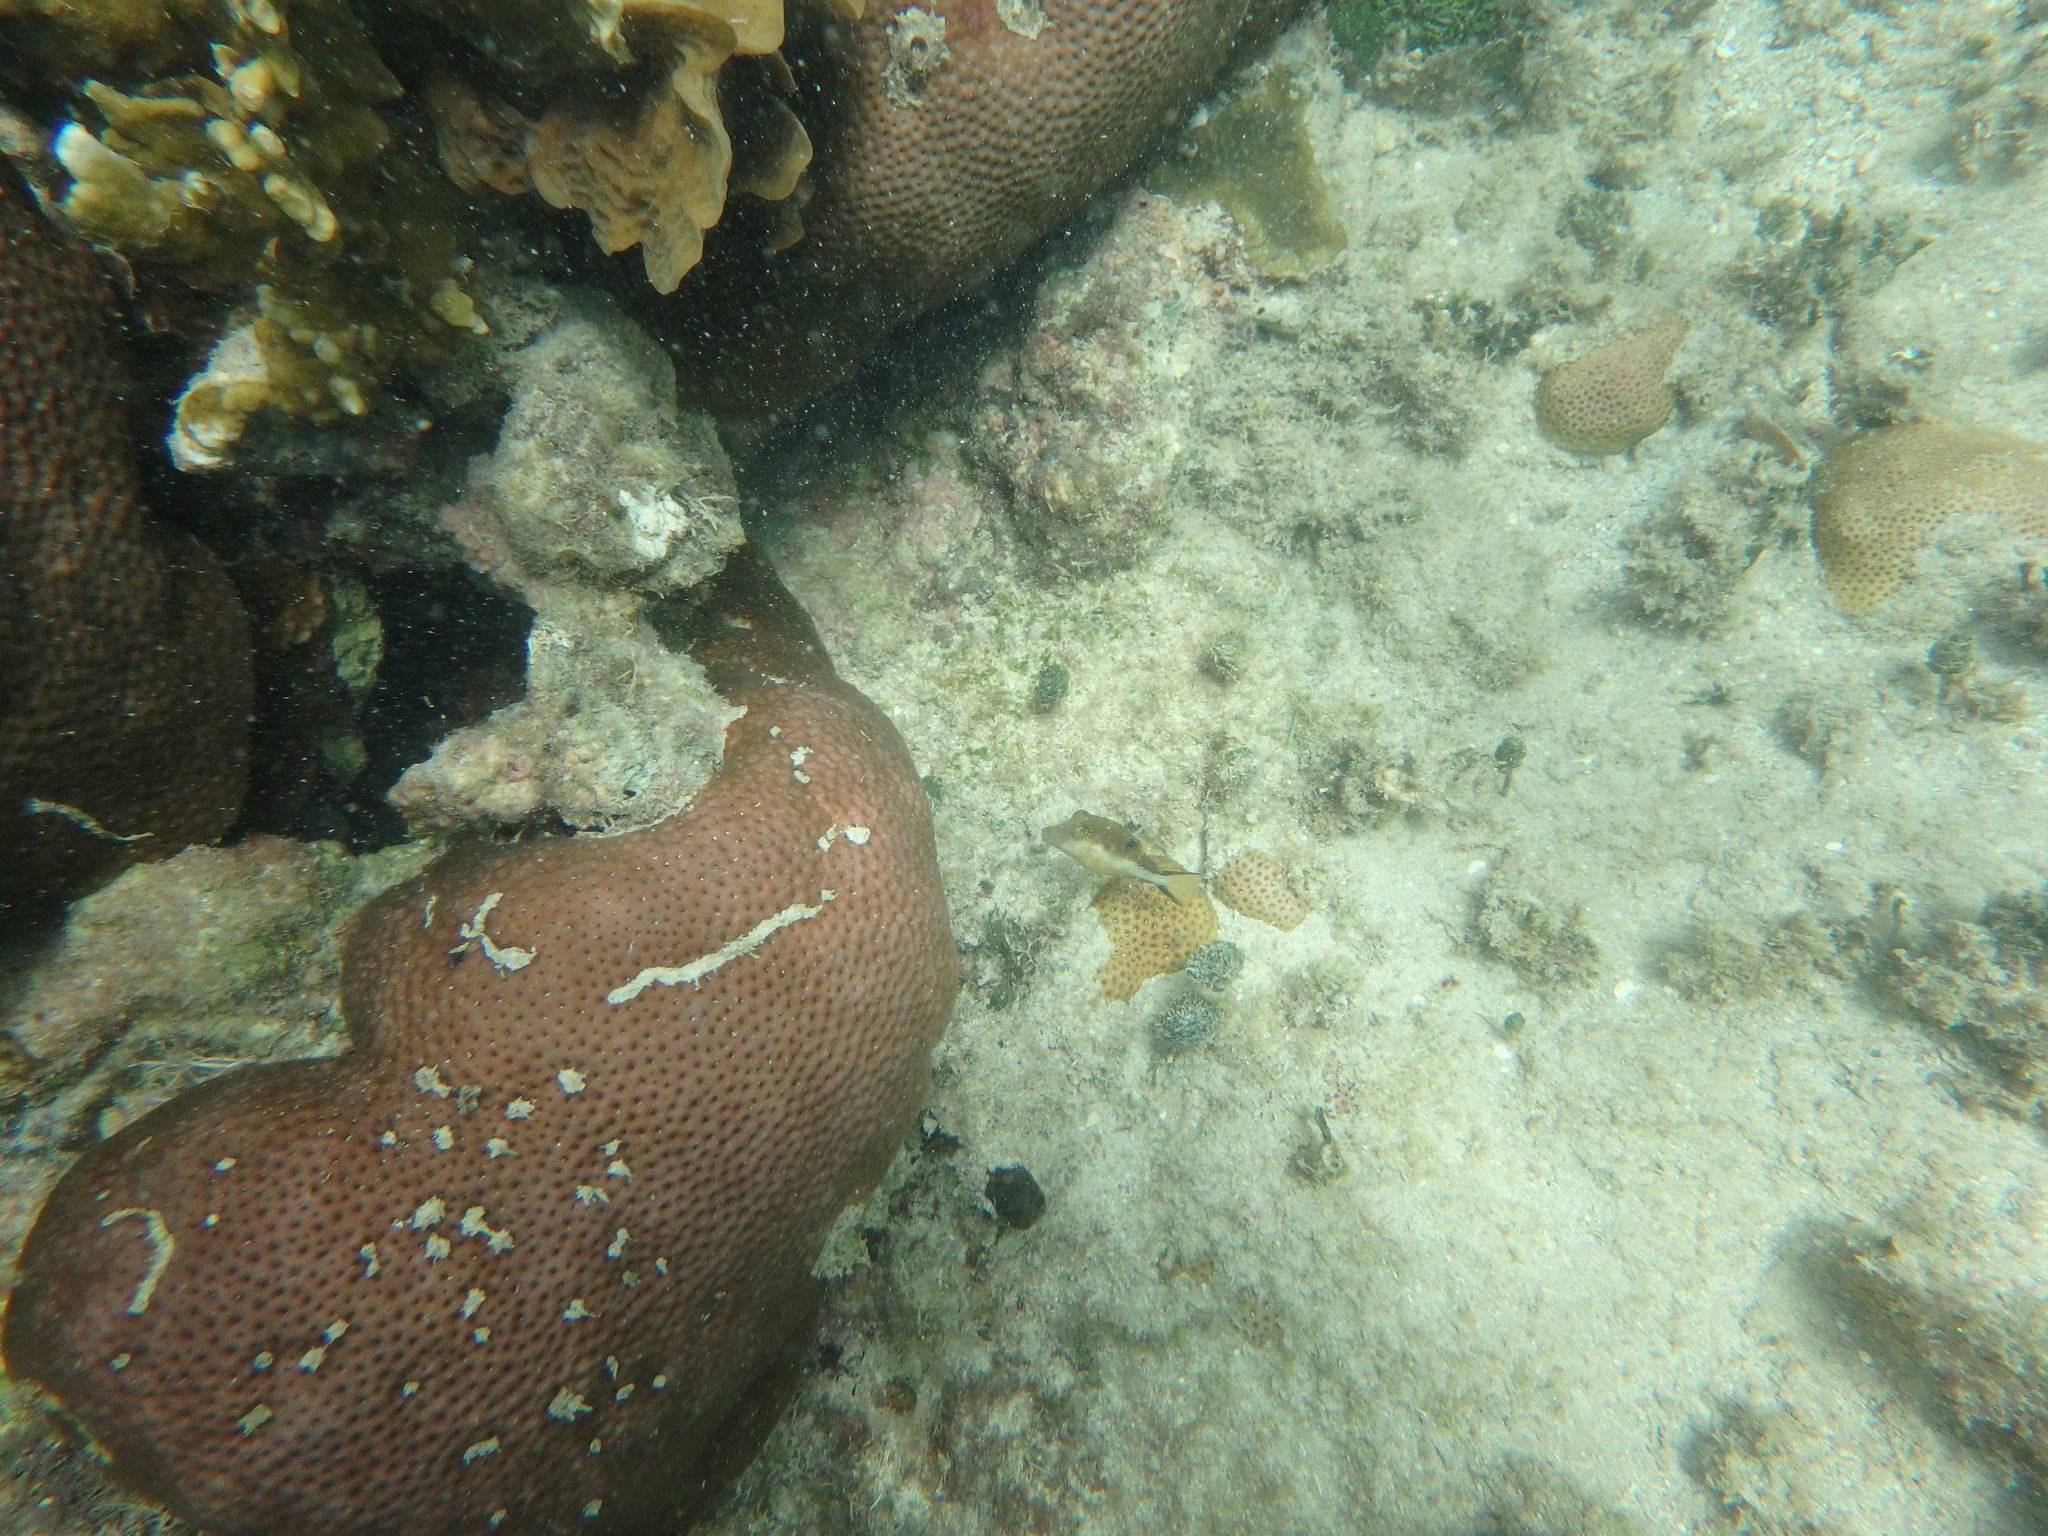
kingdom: Animalia
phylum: Chordata
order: Tetraodontiformes
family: Tetraodontidae
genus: Canthigaster
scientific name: Canthigaster rostrata
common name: Caribbean sharpnose-puffer
